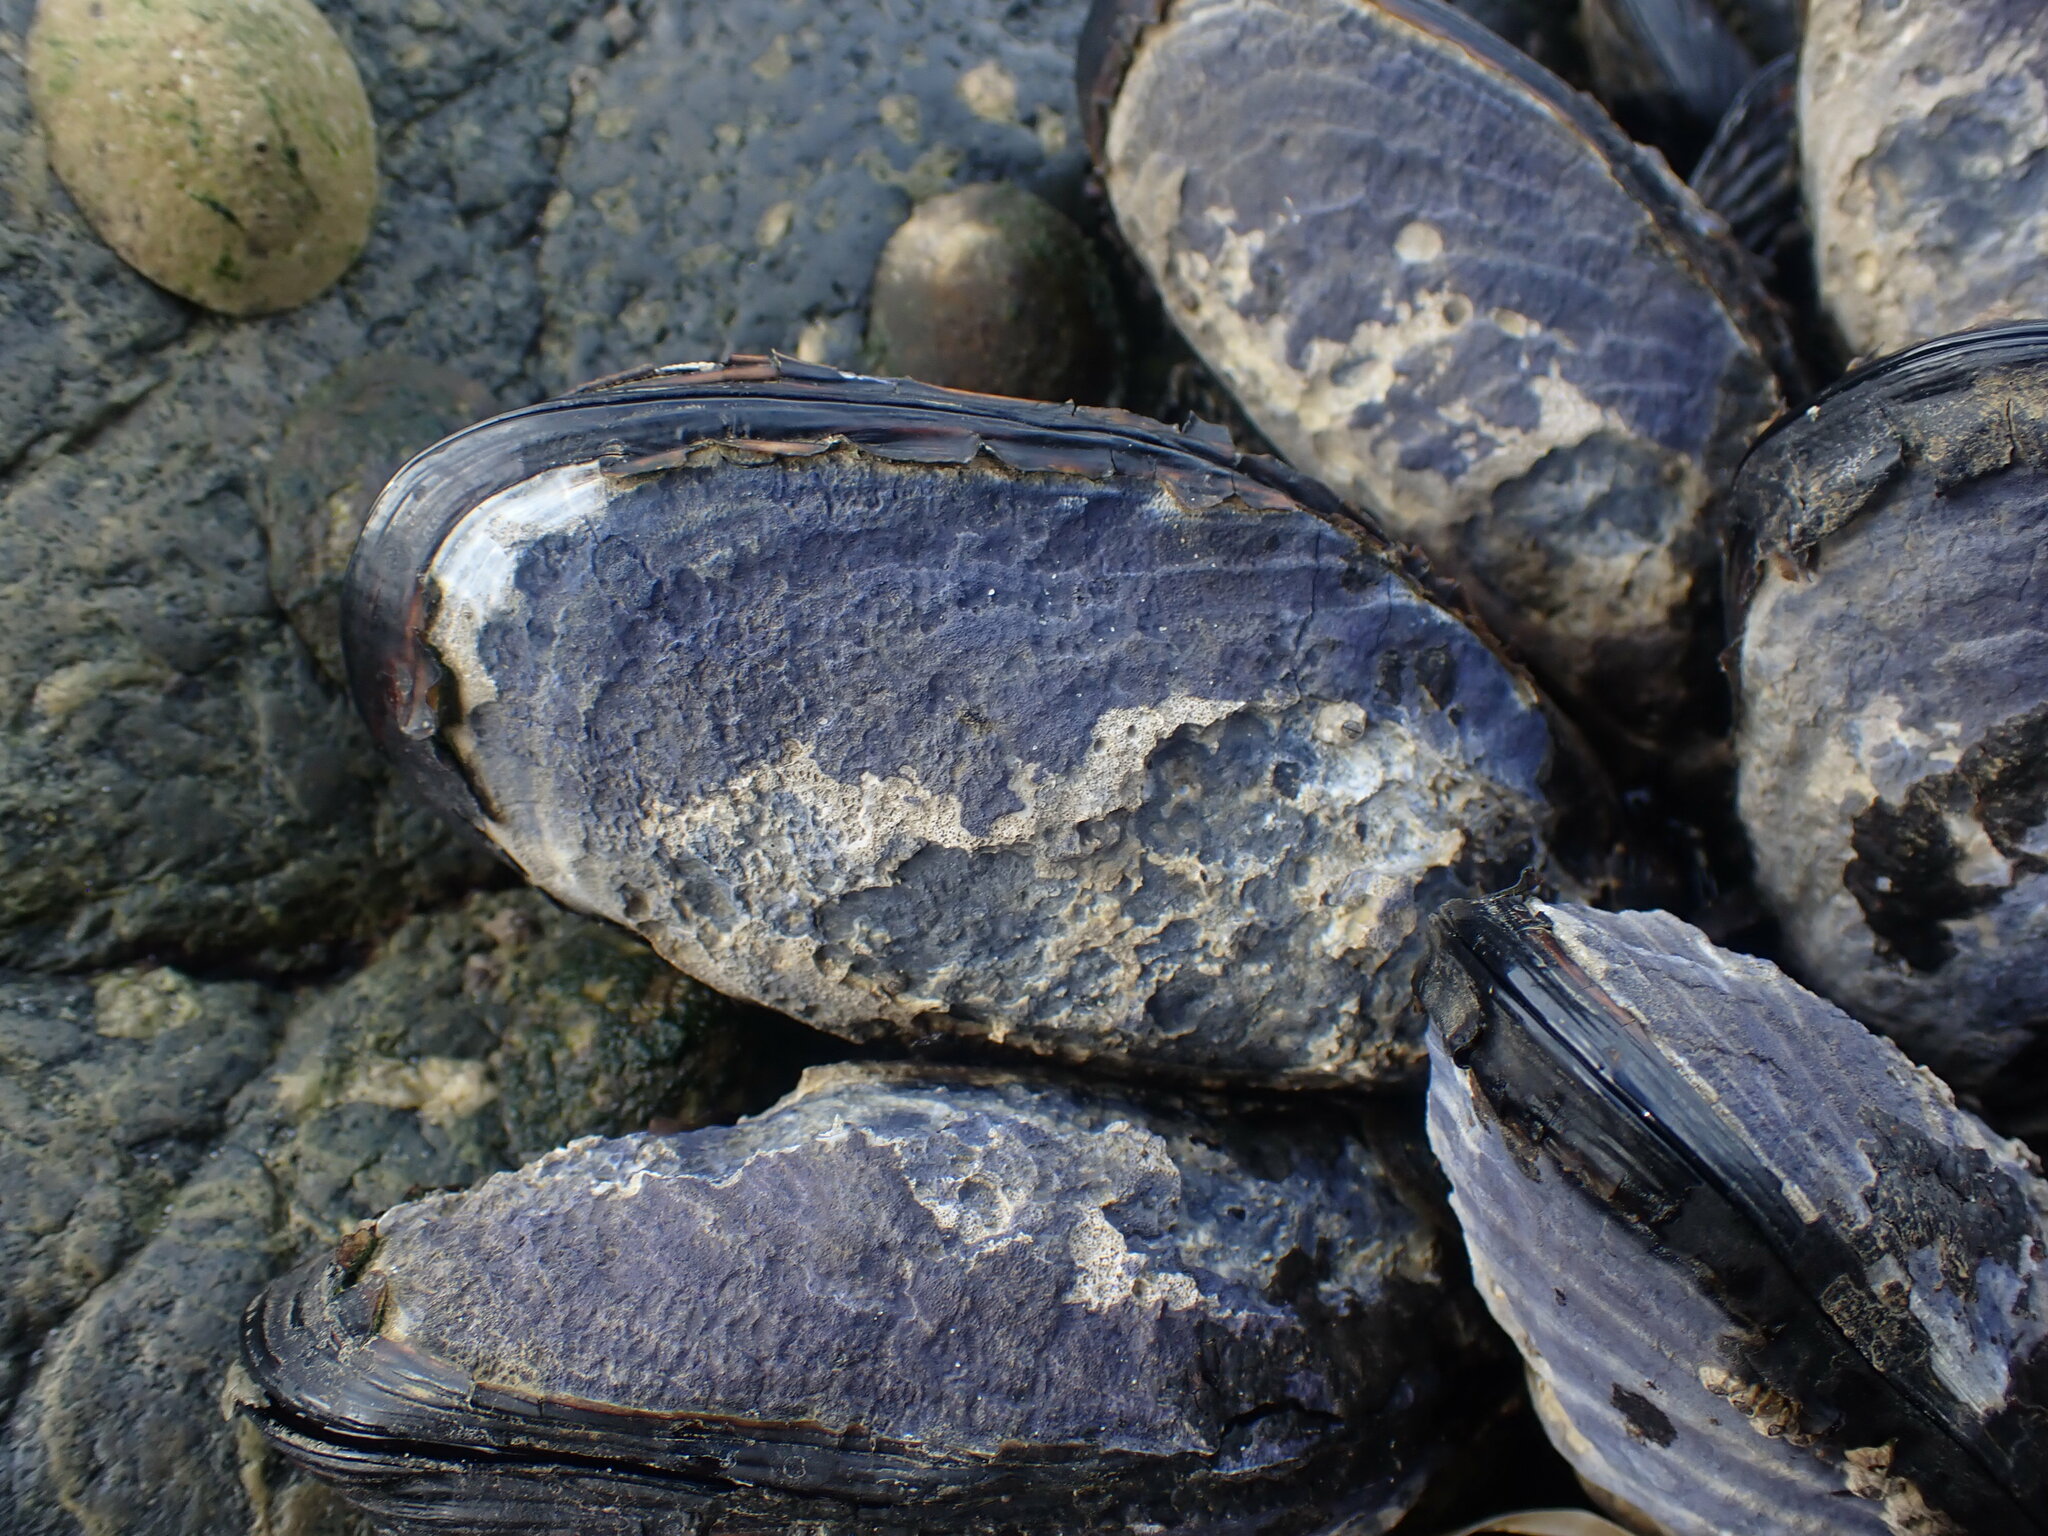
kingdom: Animalia
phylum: Mollusca
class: Bivalvia
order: Mytilida
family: Mytilidae
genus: Mytilus
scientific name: Mytilus californianus
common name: California mussel
